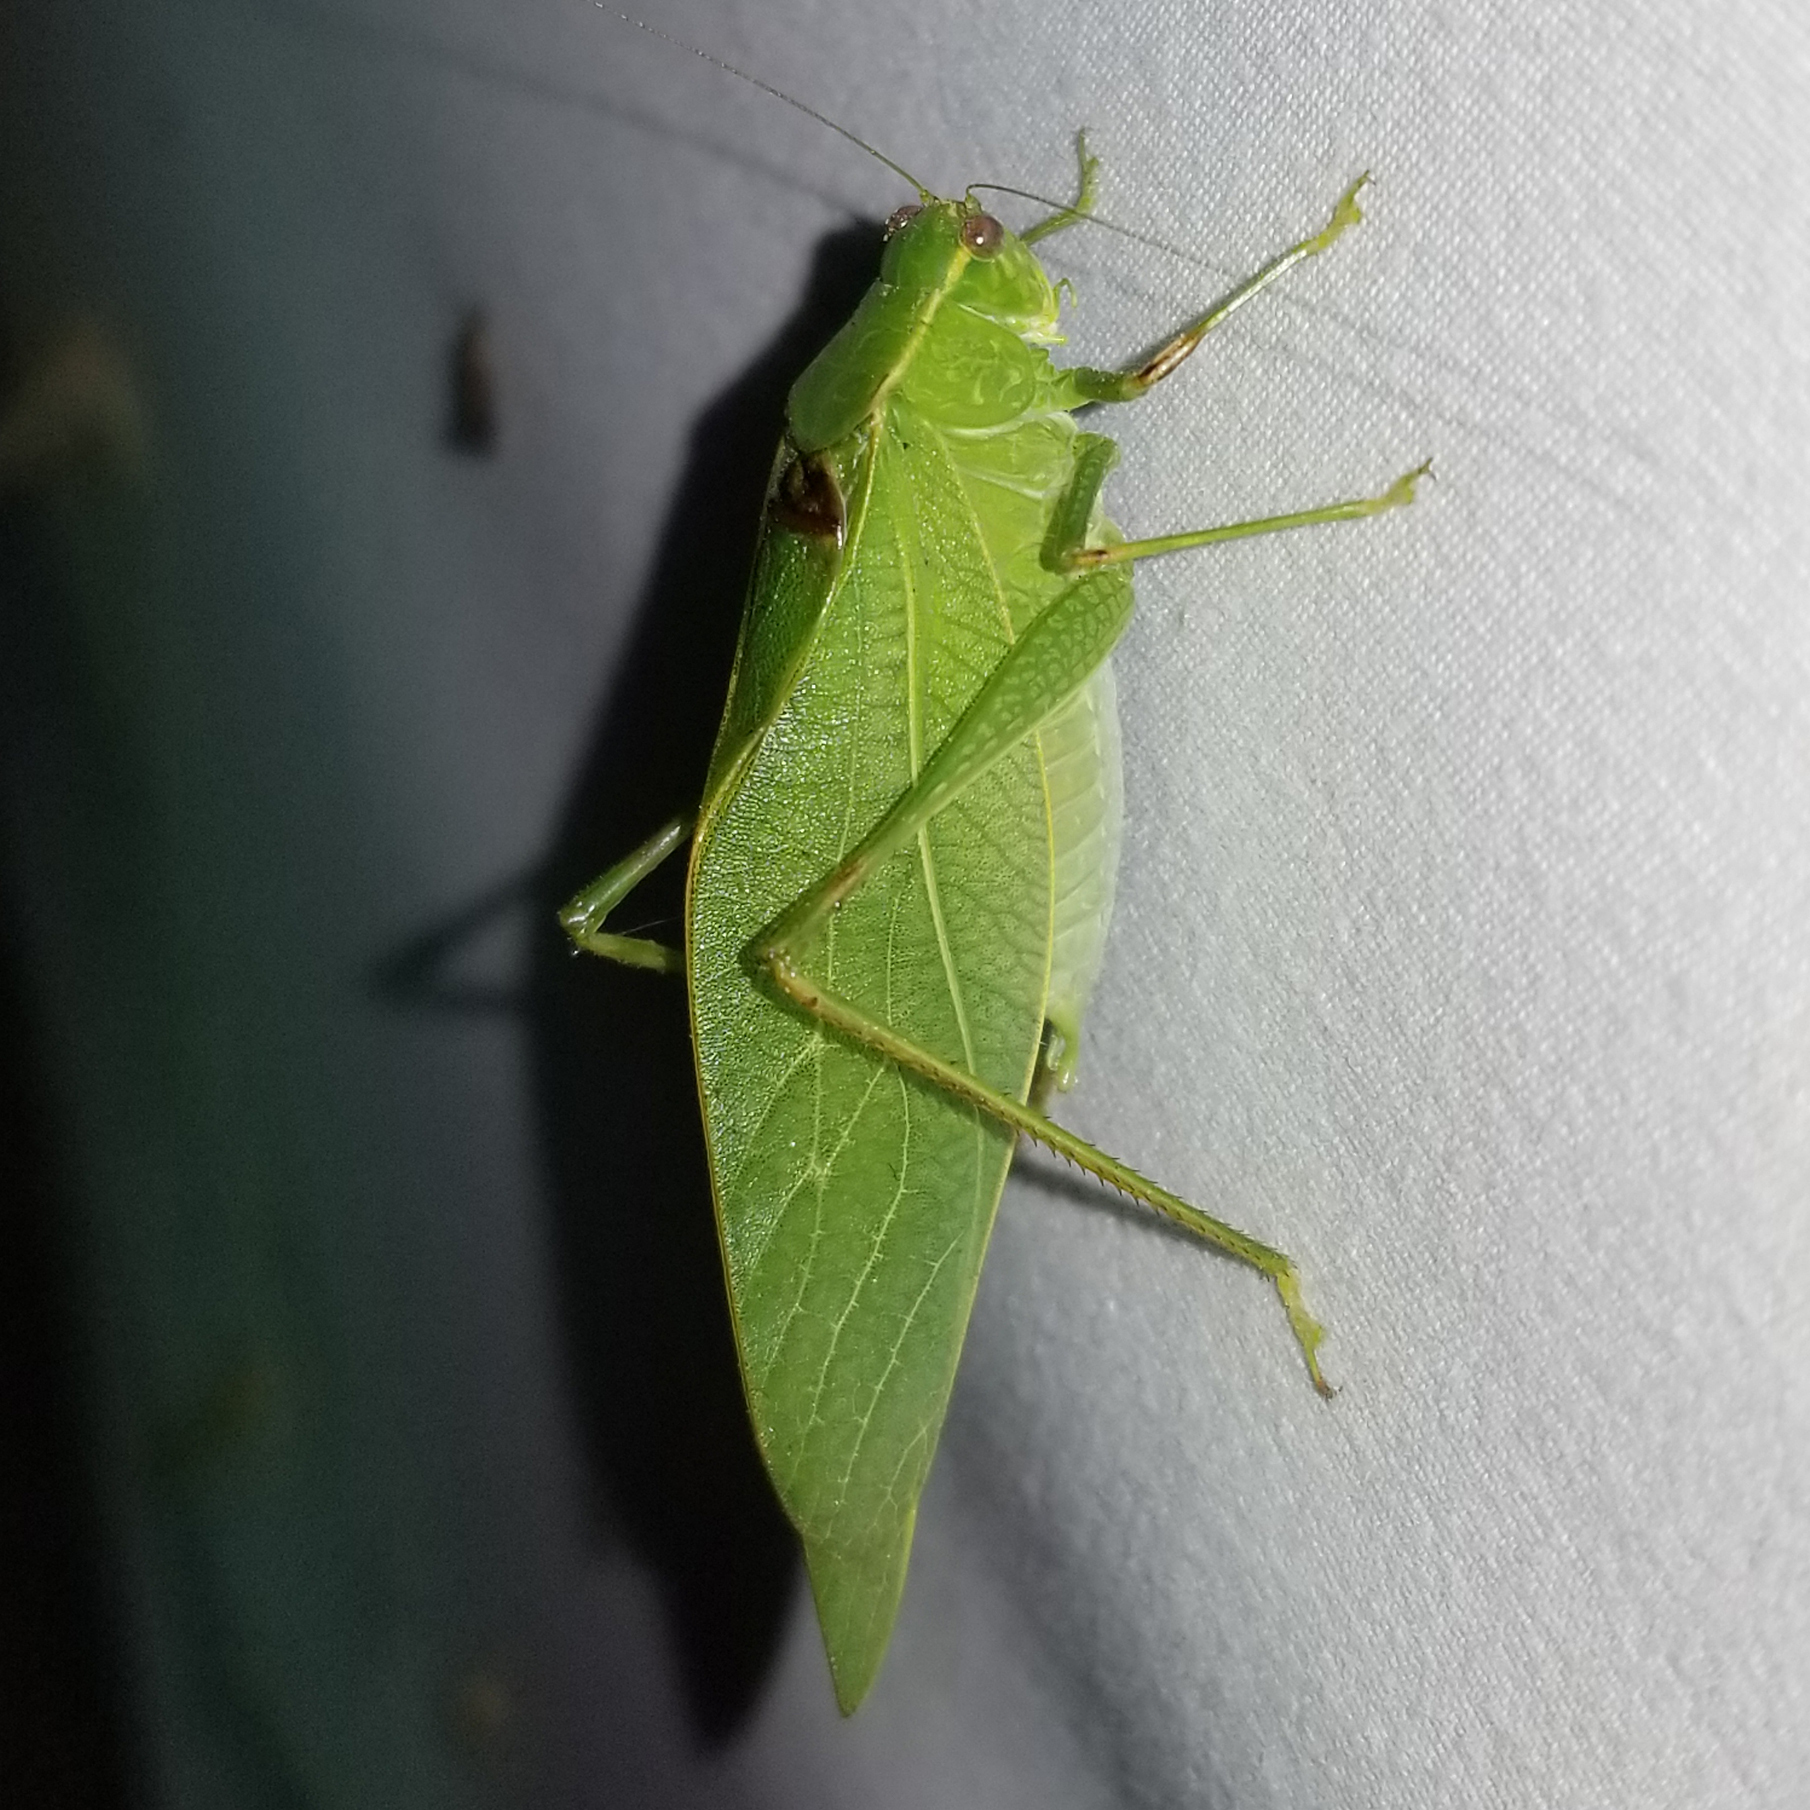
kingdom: Animalia
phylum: Arthropoda
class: Insecta
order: Orthoptera
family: Tettigoniidae
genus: Microcentrum
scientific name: Microcentrum retinerve
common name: Angular-winged katydid
